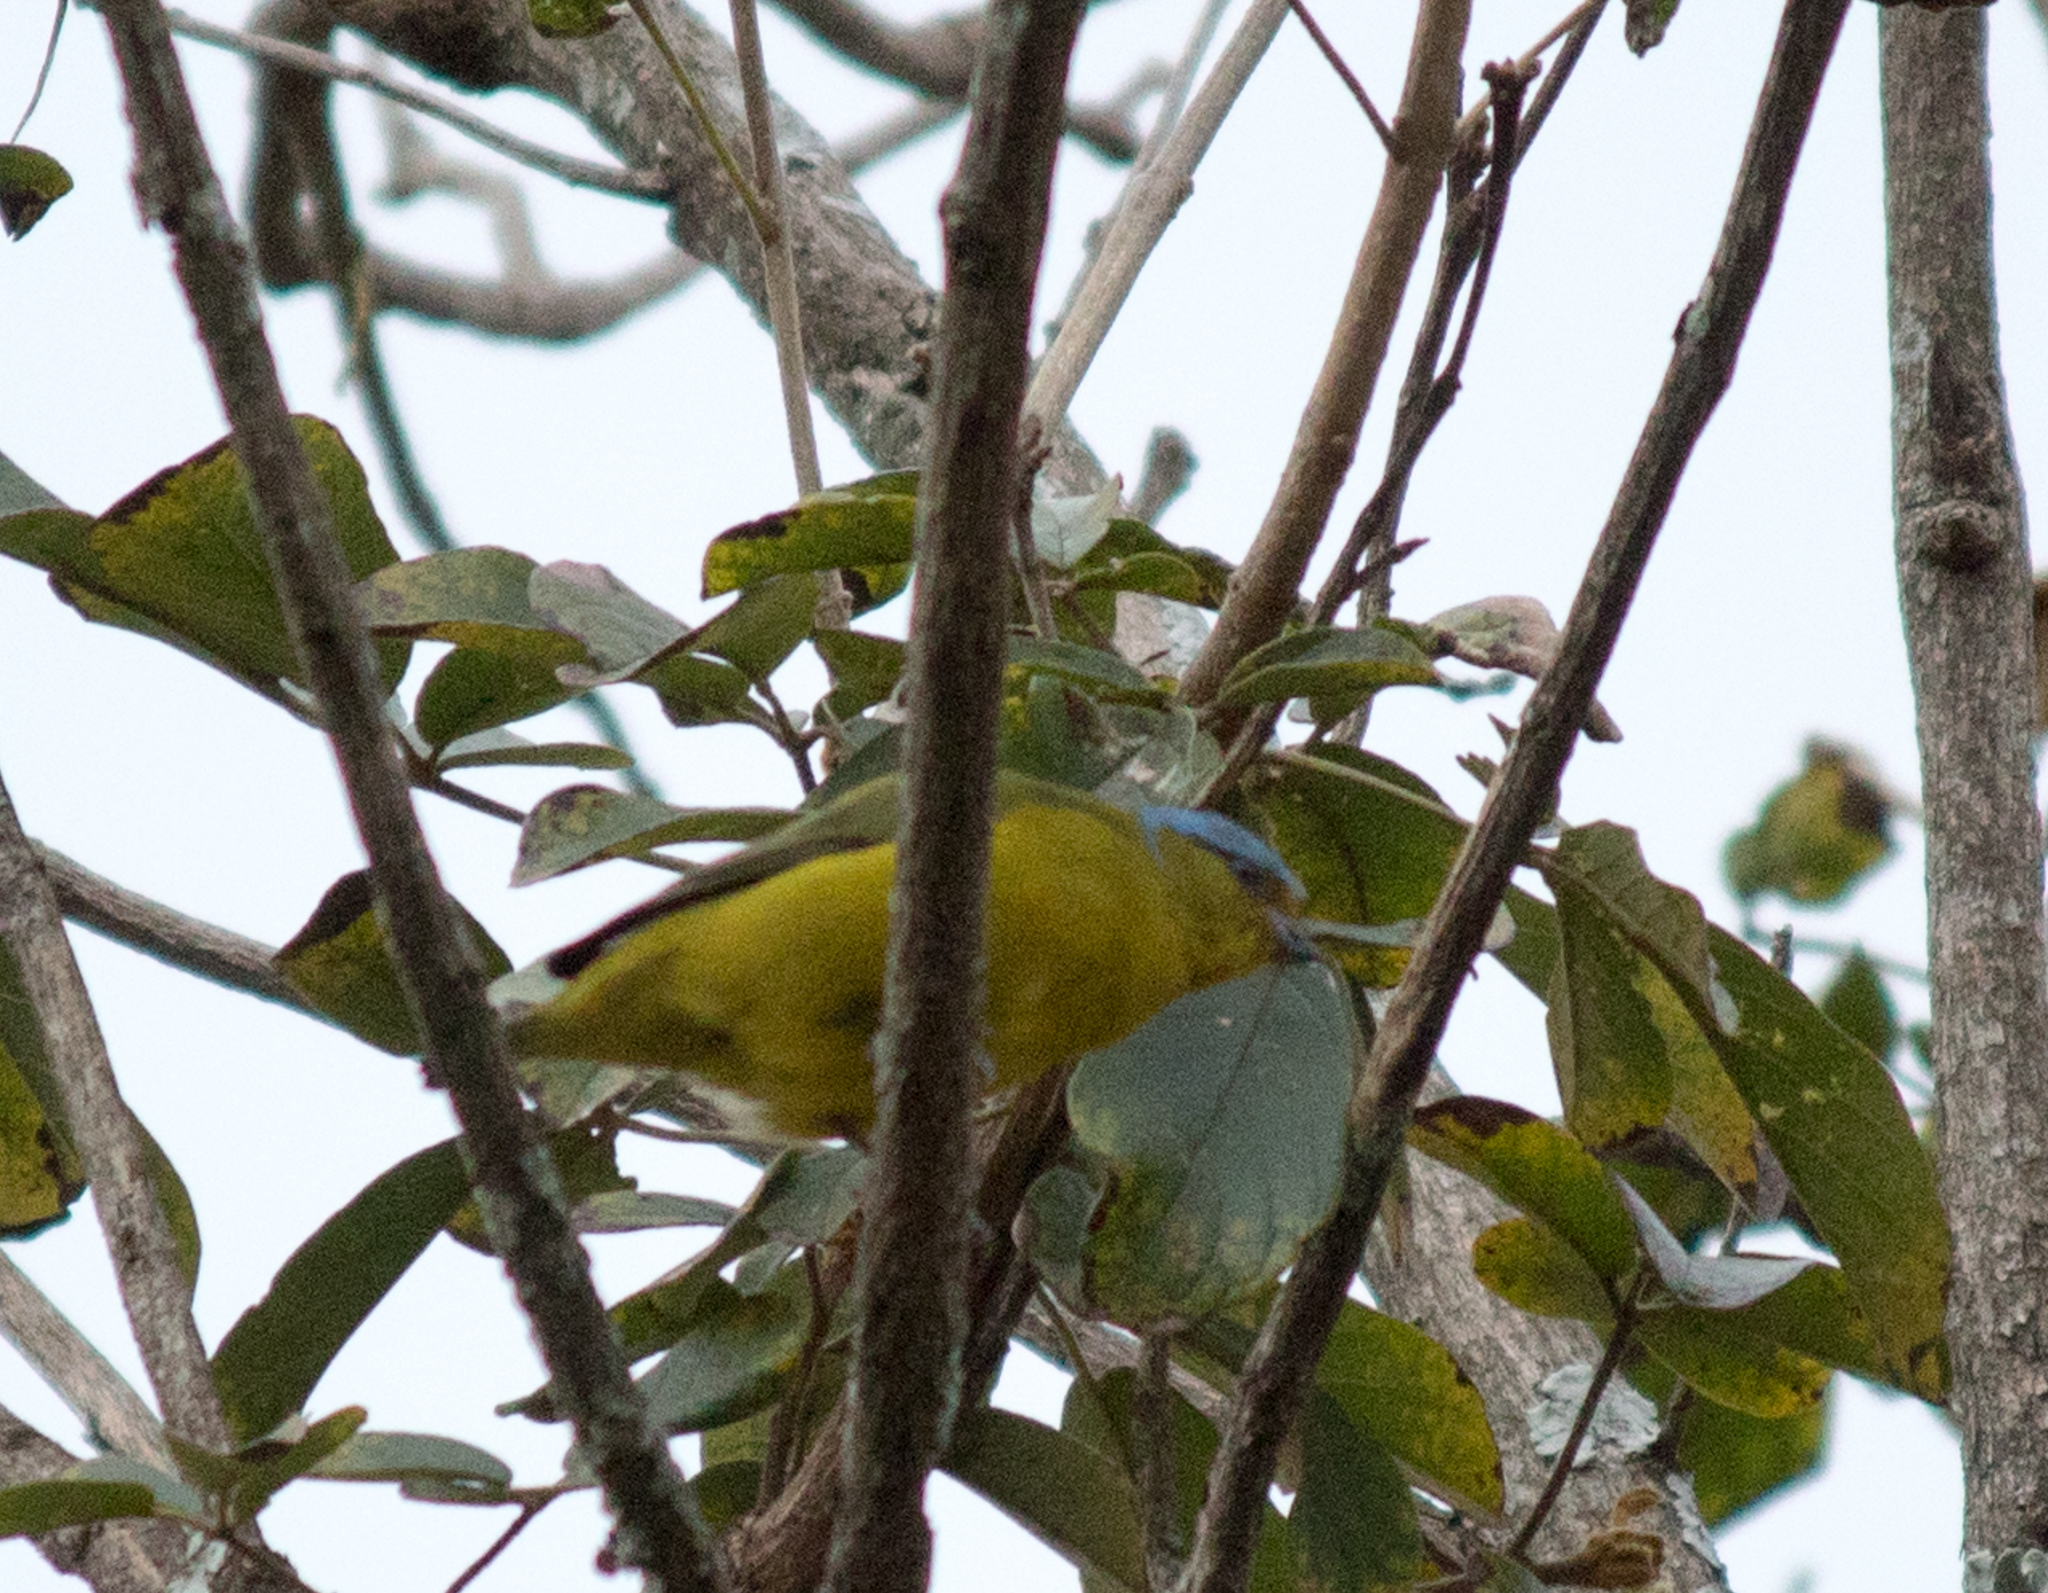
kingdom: Animalia
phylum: Chordata
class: Aves
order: Passeriformes
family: Fringillidae
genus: Euphonia
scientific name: Euphonia cyanocephala
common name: Golden-rumped euphonia
